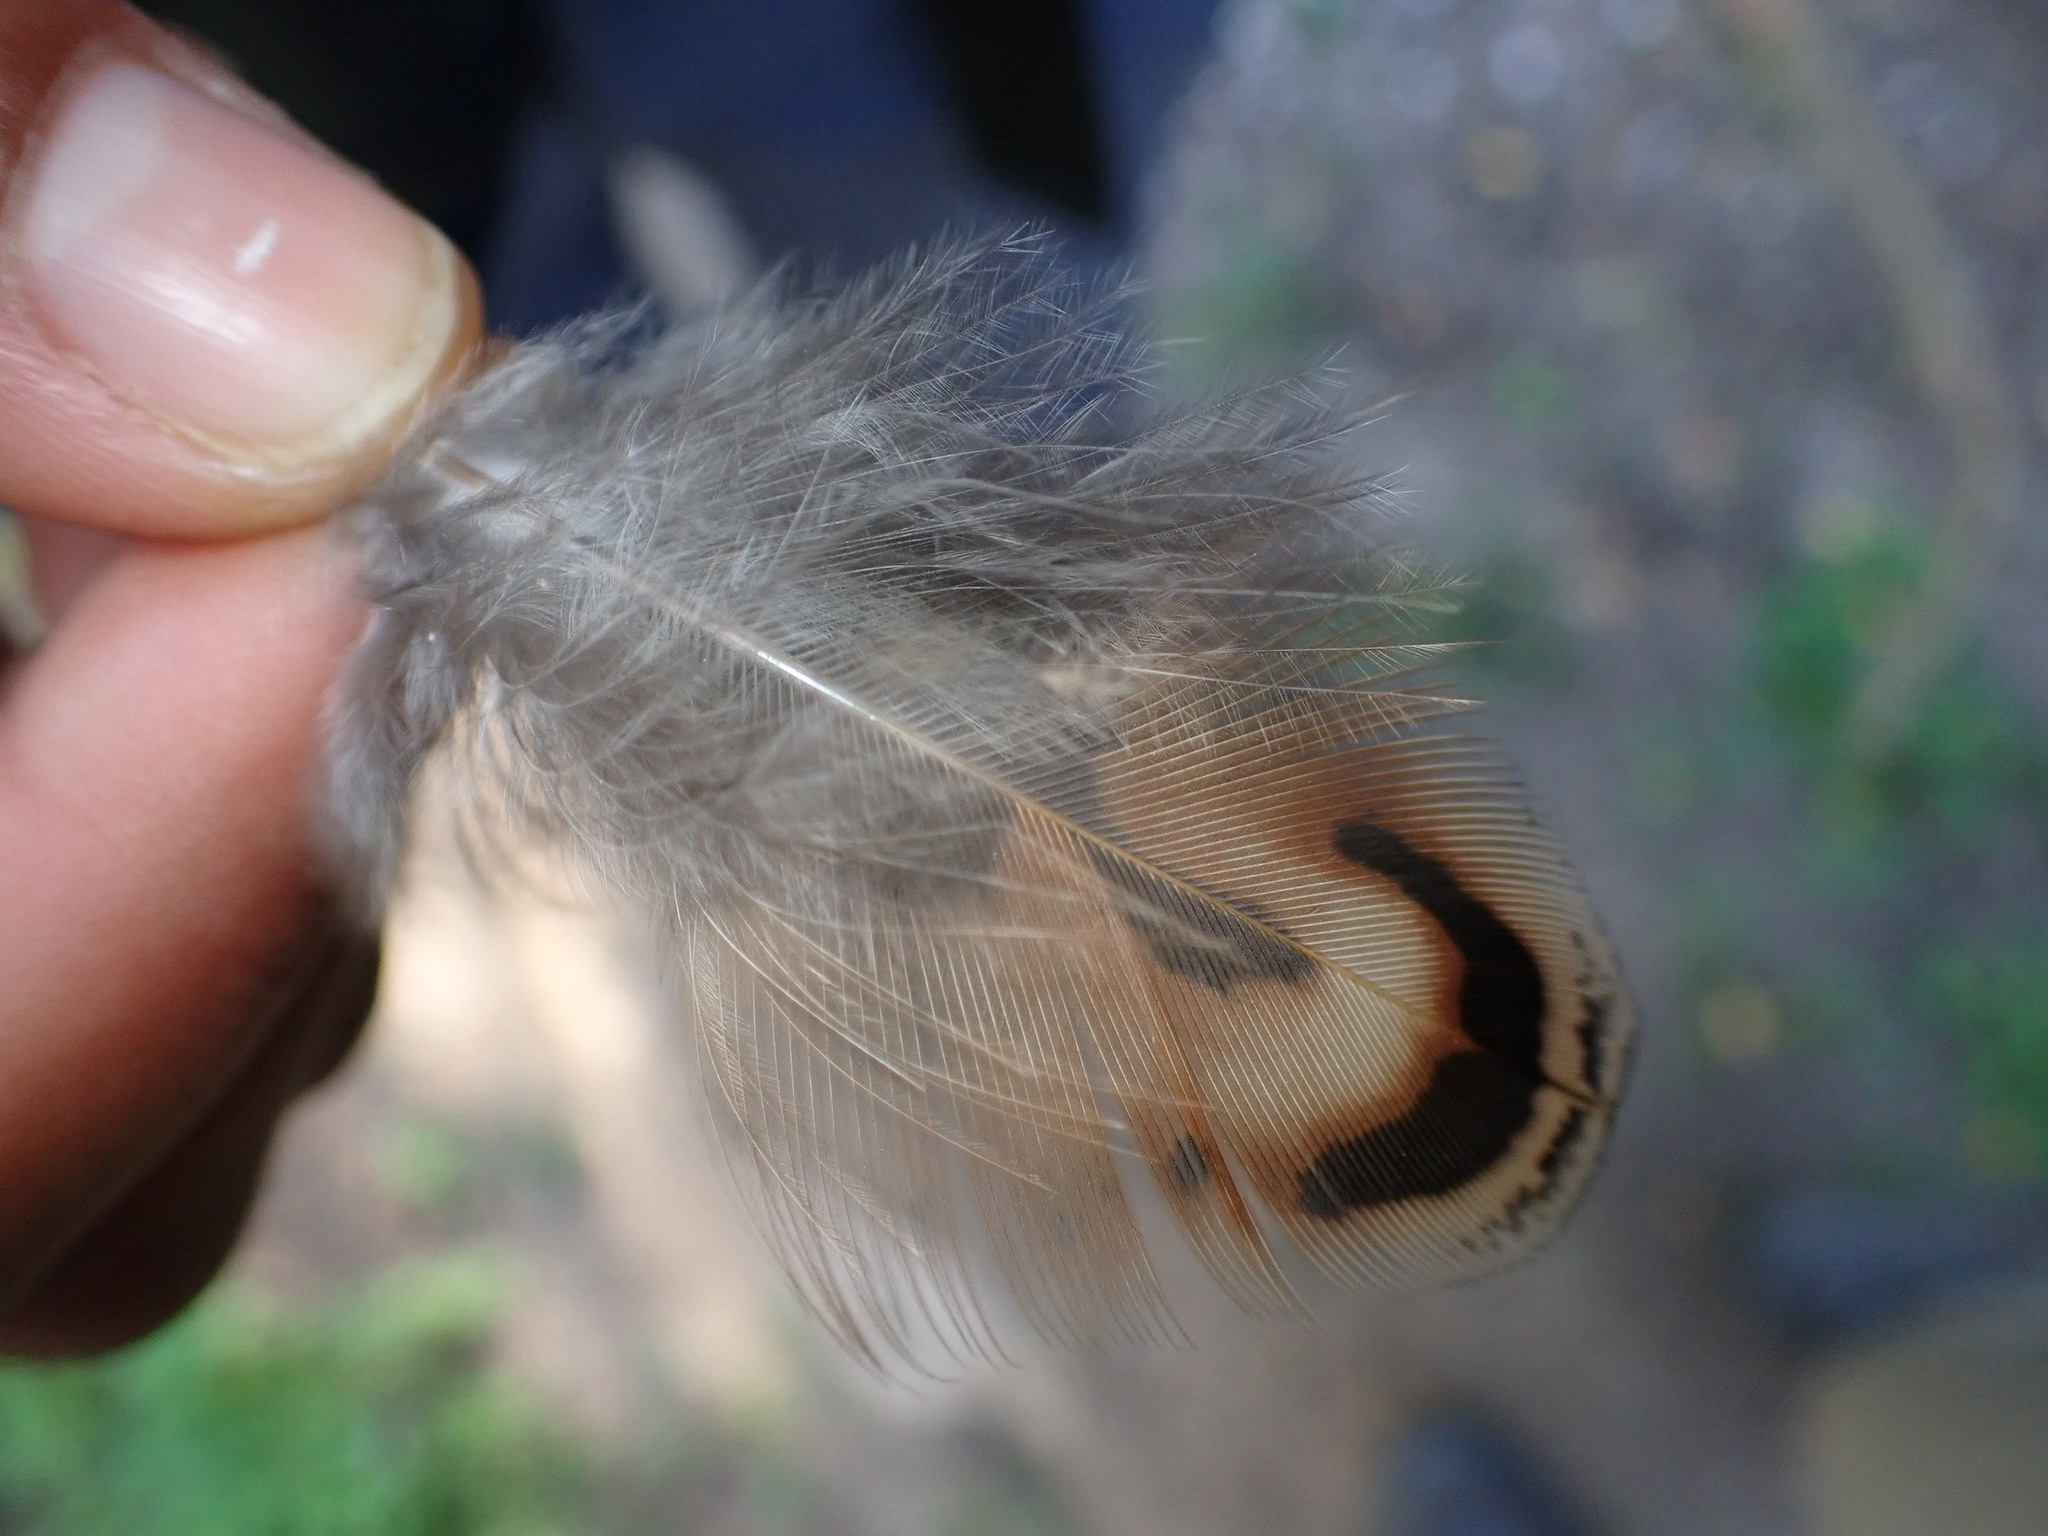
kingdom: Animalia
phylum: Chordata
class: Aves
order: Galliformes
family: Phasianidae
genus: Phasianus
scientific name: Phasianus colchicus
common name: Common pheasant
